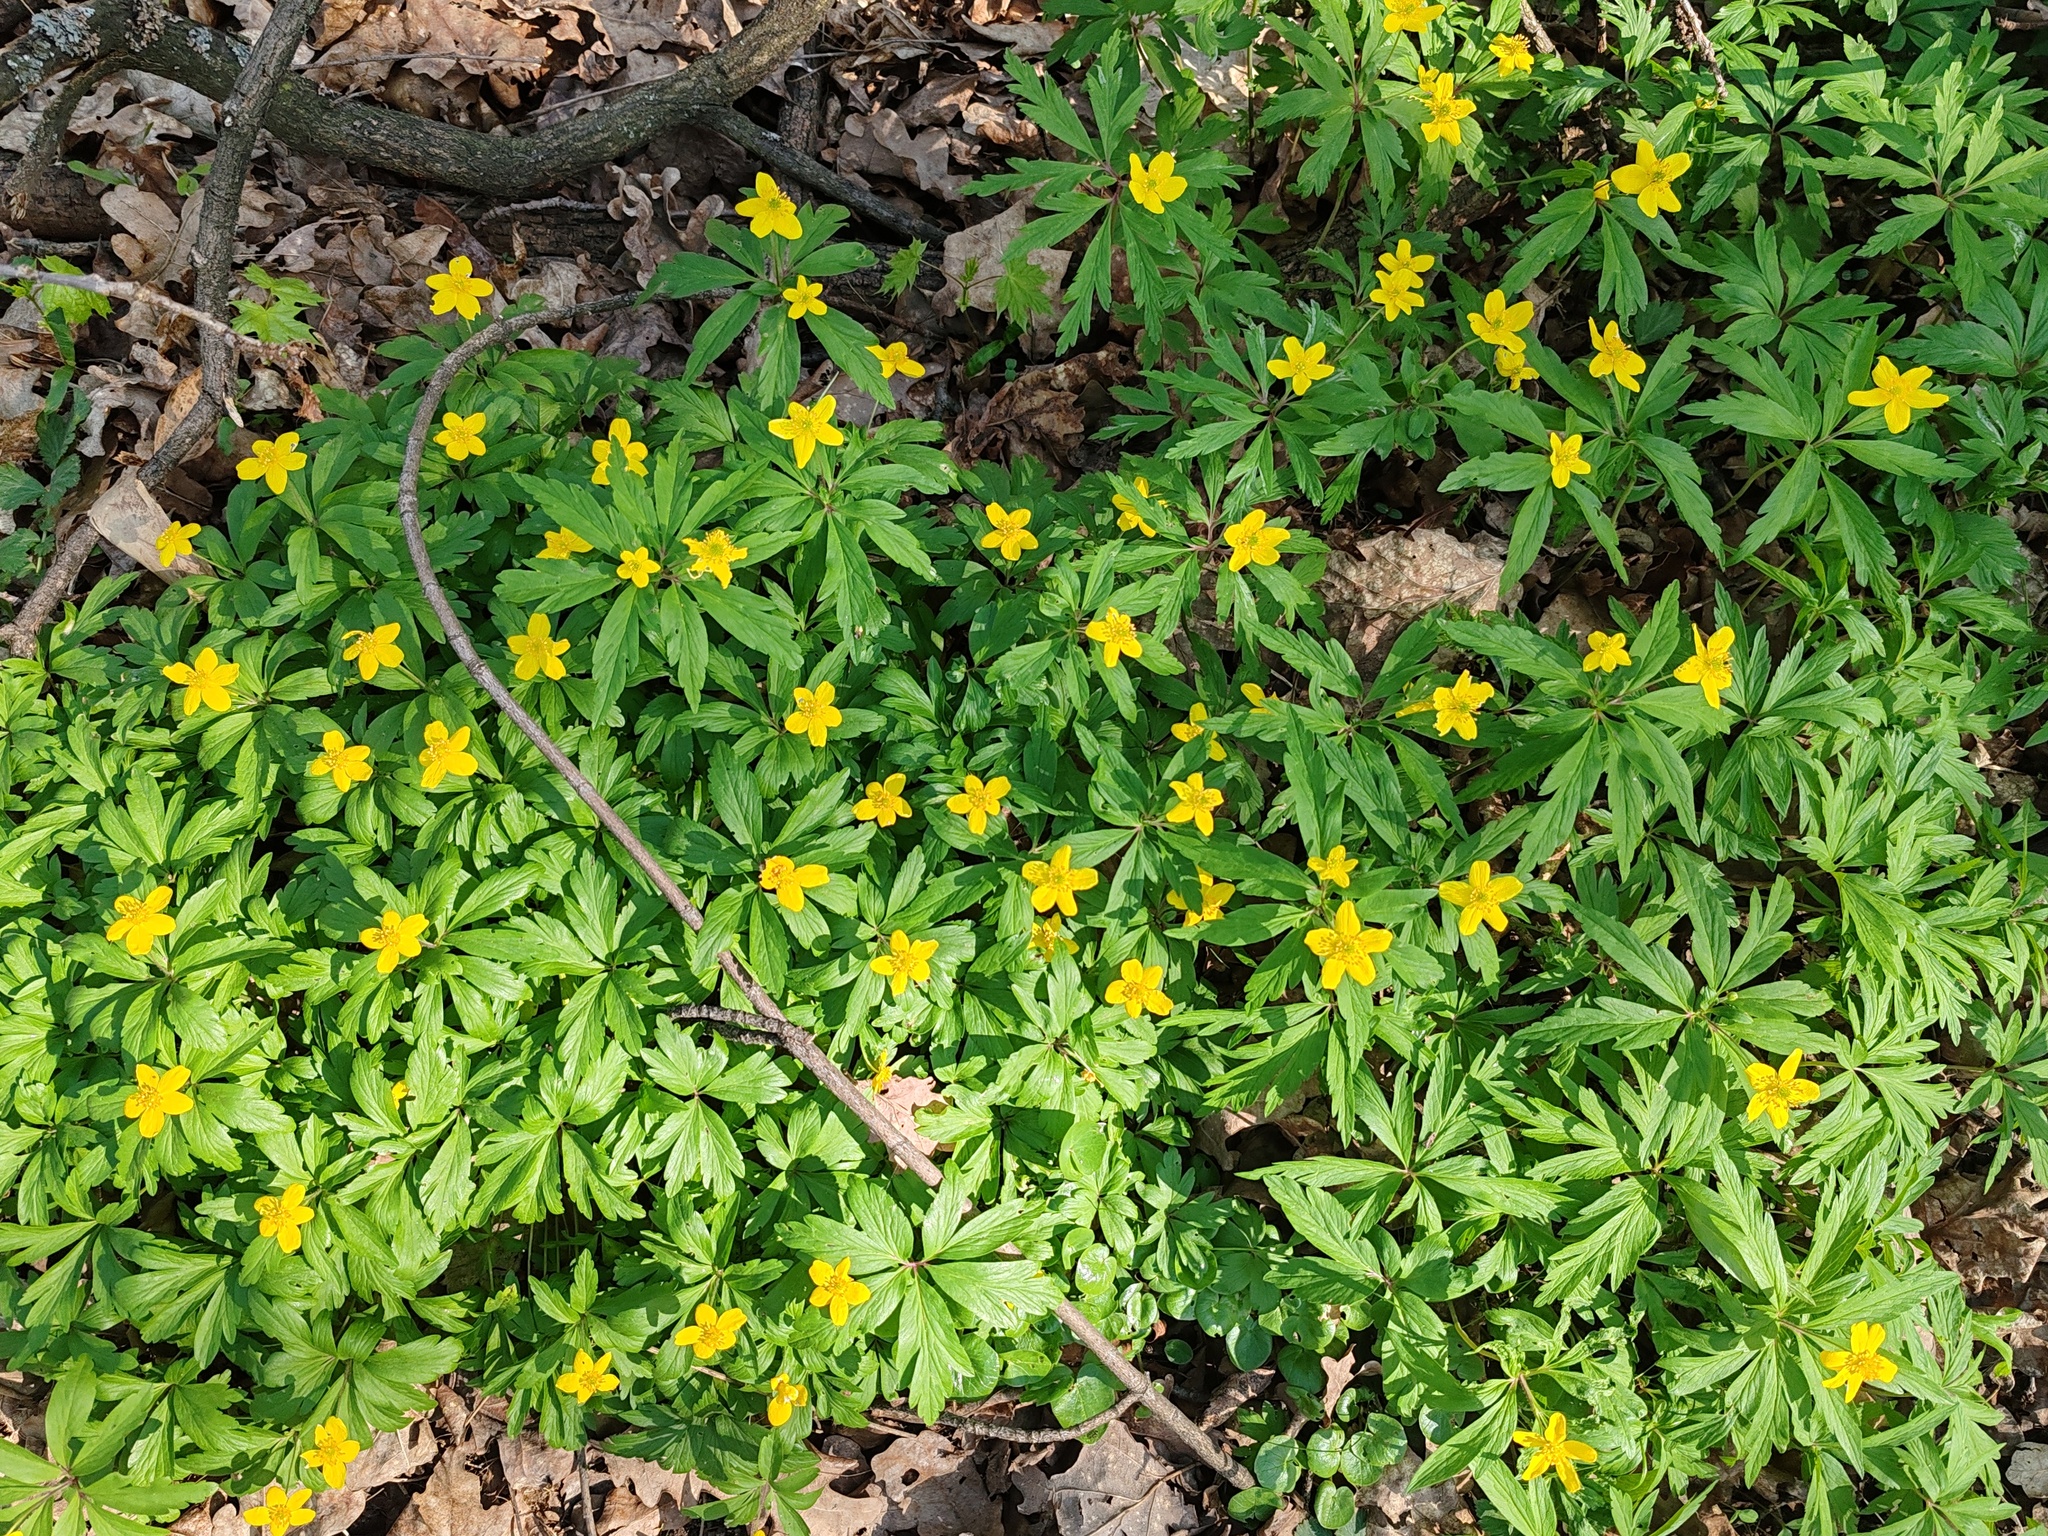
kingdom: Plantae
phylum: Tracheophyta
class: Magnoliopsida
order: Ranunculales
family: Ranunculaceae
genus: Anemone
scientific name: Anemone ranunculoides
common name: Yellow anemone
